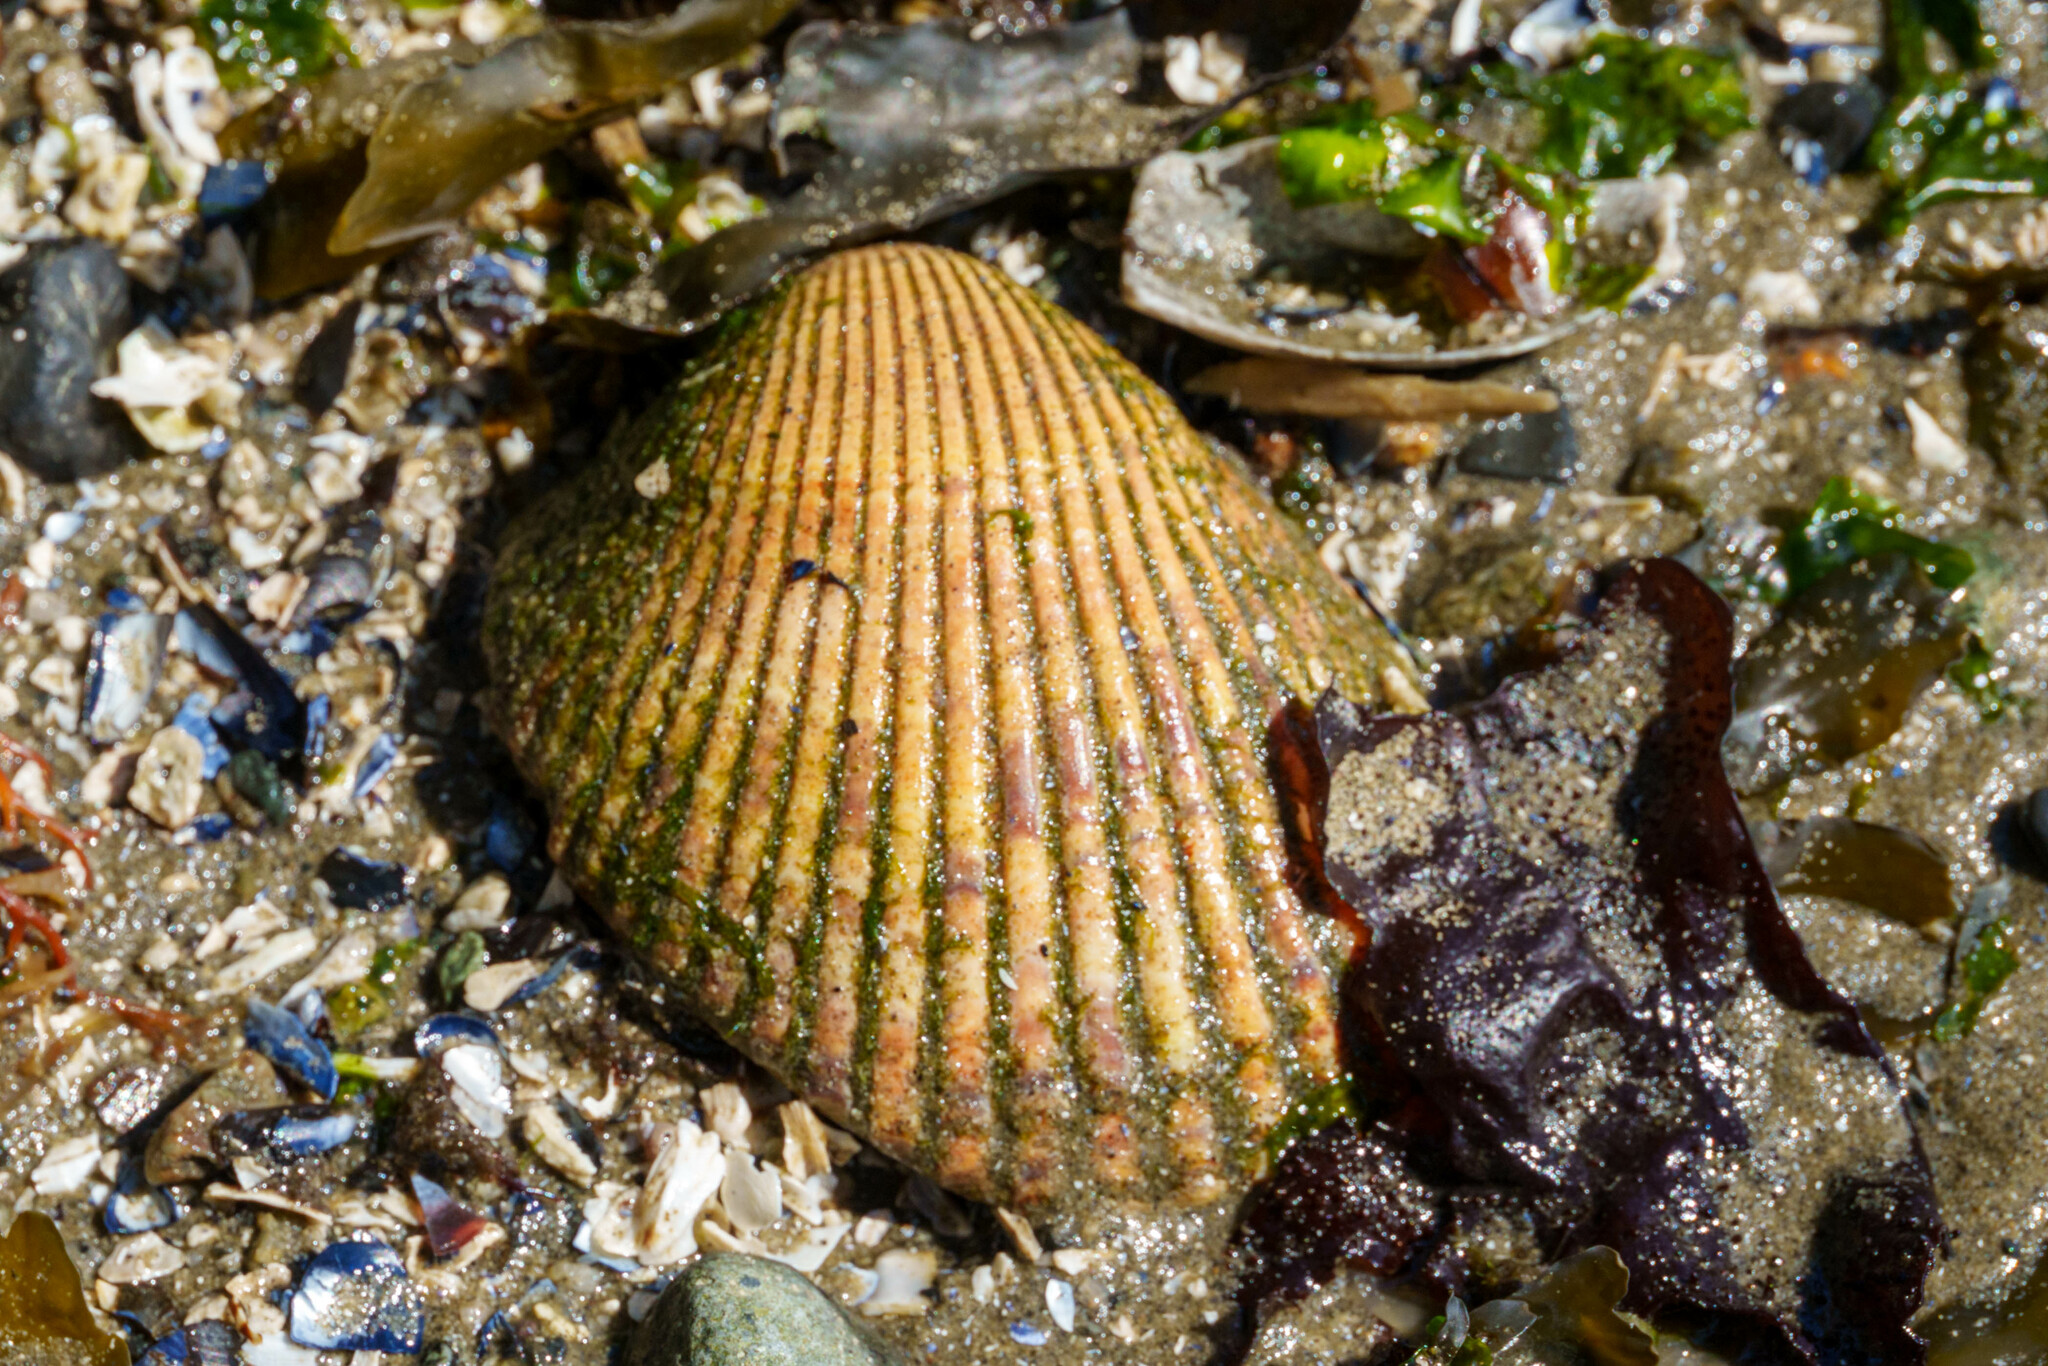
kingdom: Animalia
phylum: Mollusca
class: Bivalvia
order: Cardiida
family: Cardiidae
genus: Clinocardium
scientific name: Clinocardium nuttallii
